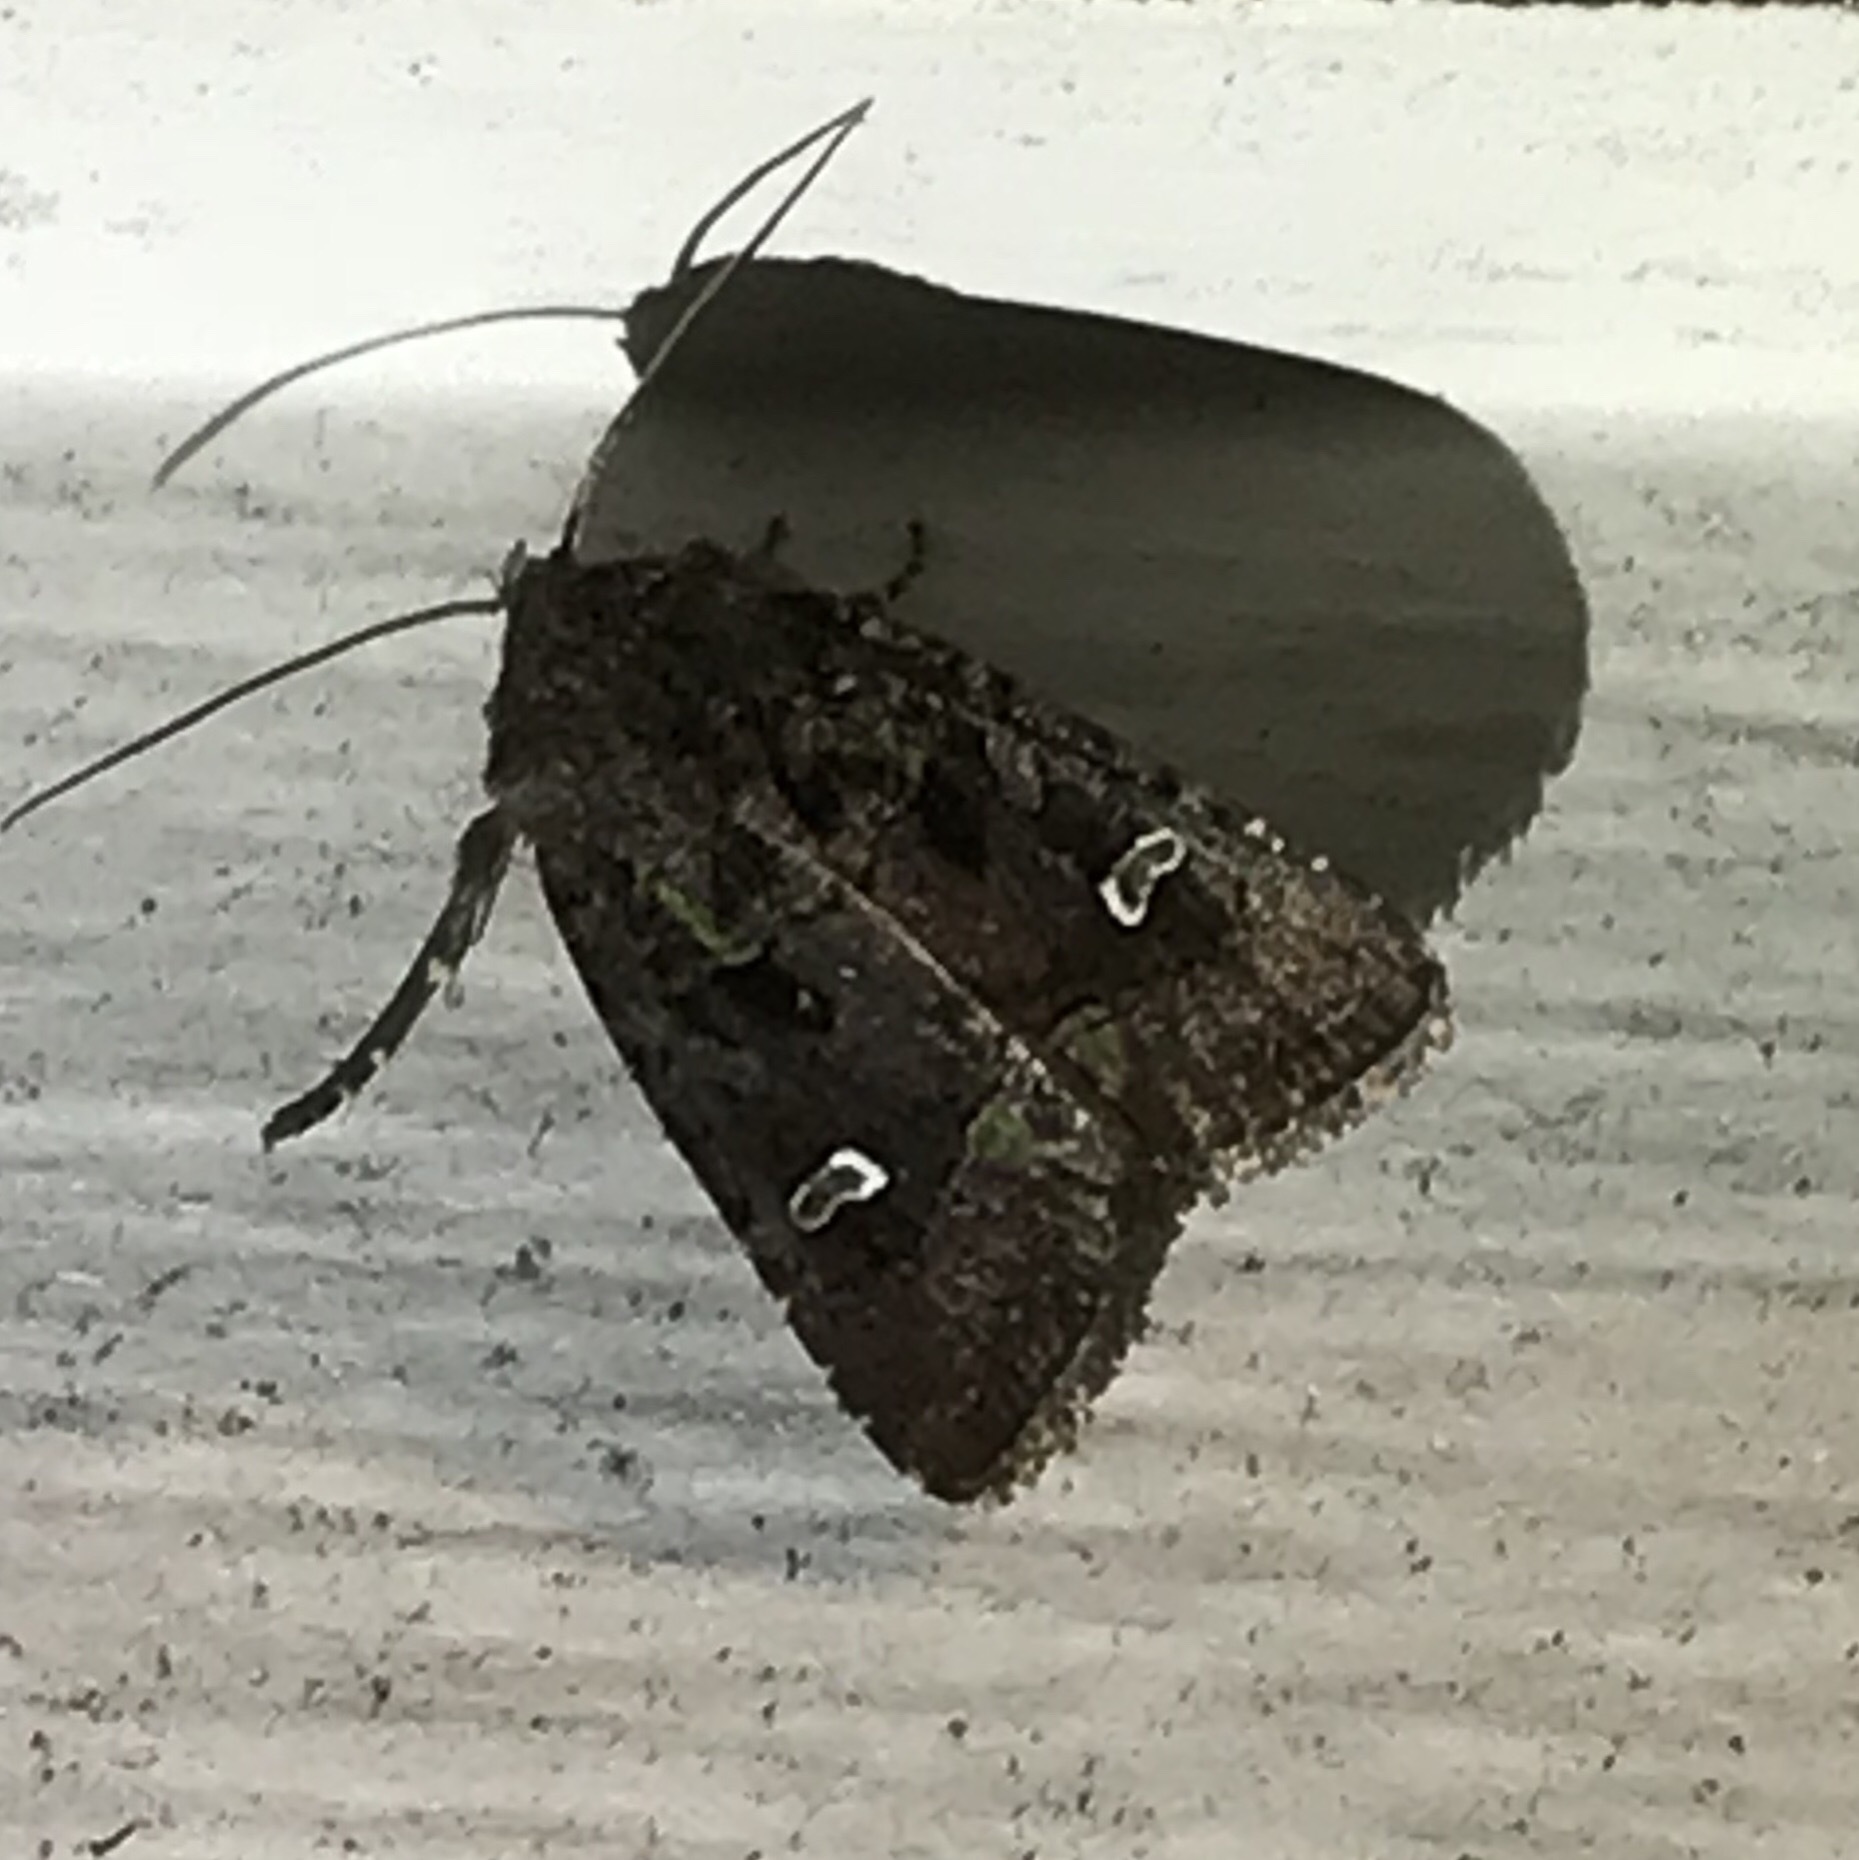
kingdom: Animalia
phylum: Arthropoda
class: Insecta
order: Lepidoptera
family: Noctuidae
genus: Lacinipolia
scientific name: Lacinipolia renigera
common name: Kidney-spotted minor
